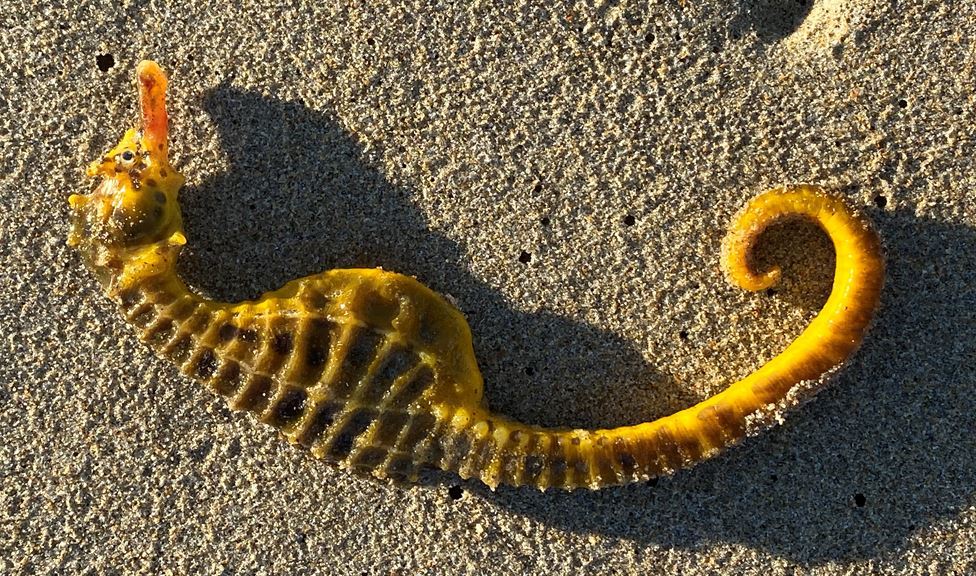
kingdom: Animalia
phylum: Chordata
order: Syngnathiformes
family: Syngnathidae
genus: Hippocampus
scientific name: Hippocampus abdominalis
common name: Big-belly seahorse
